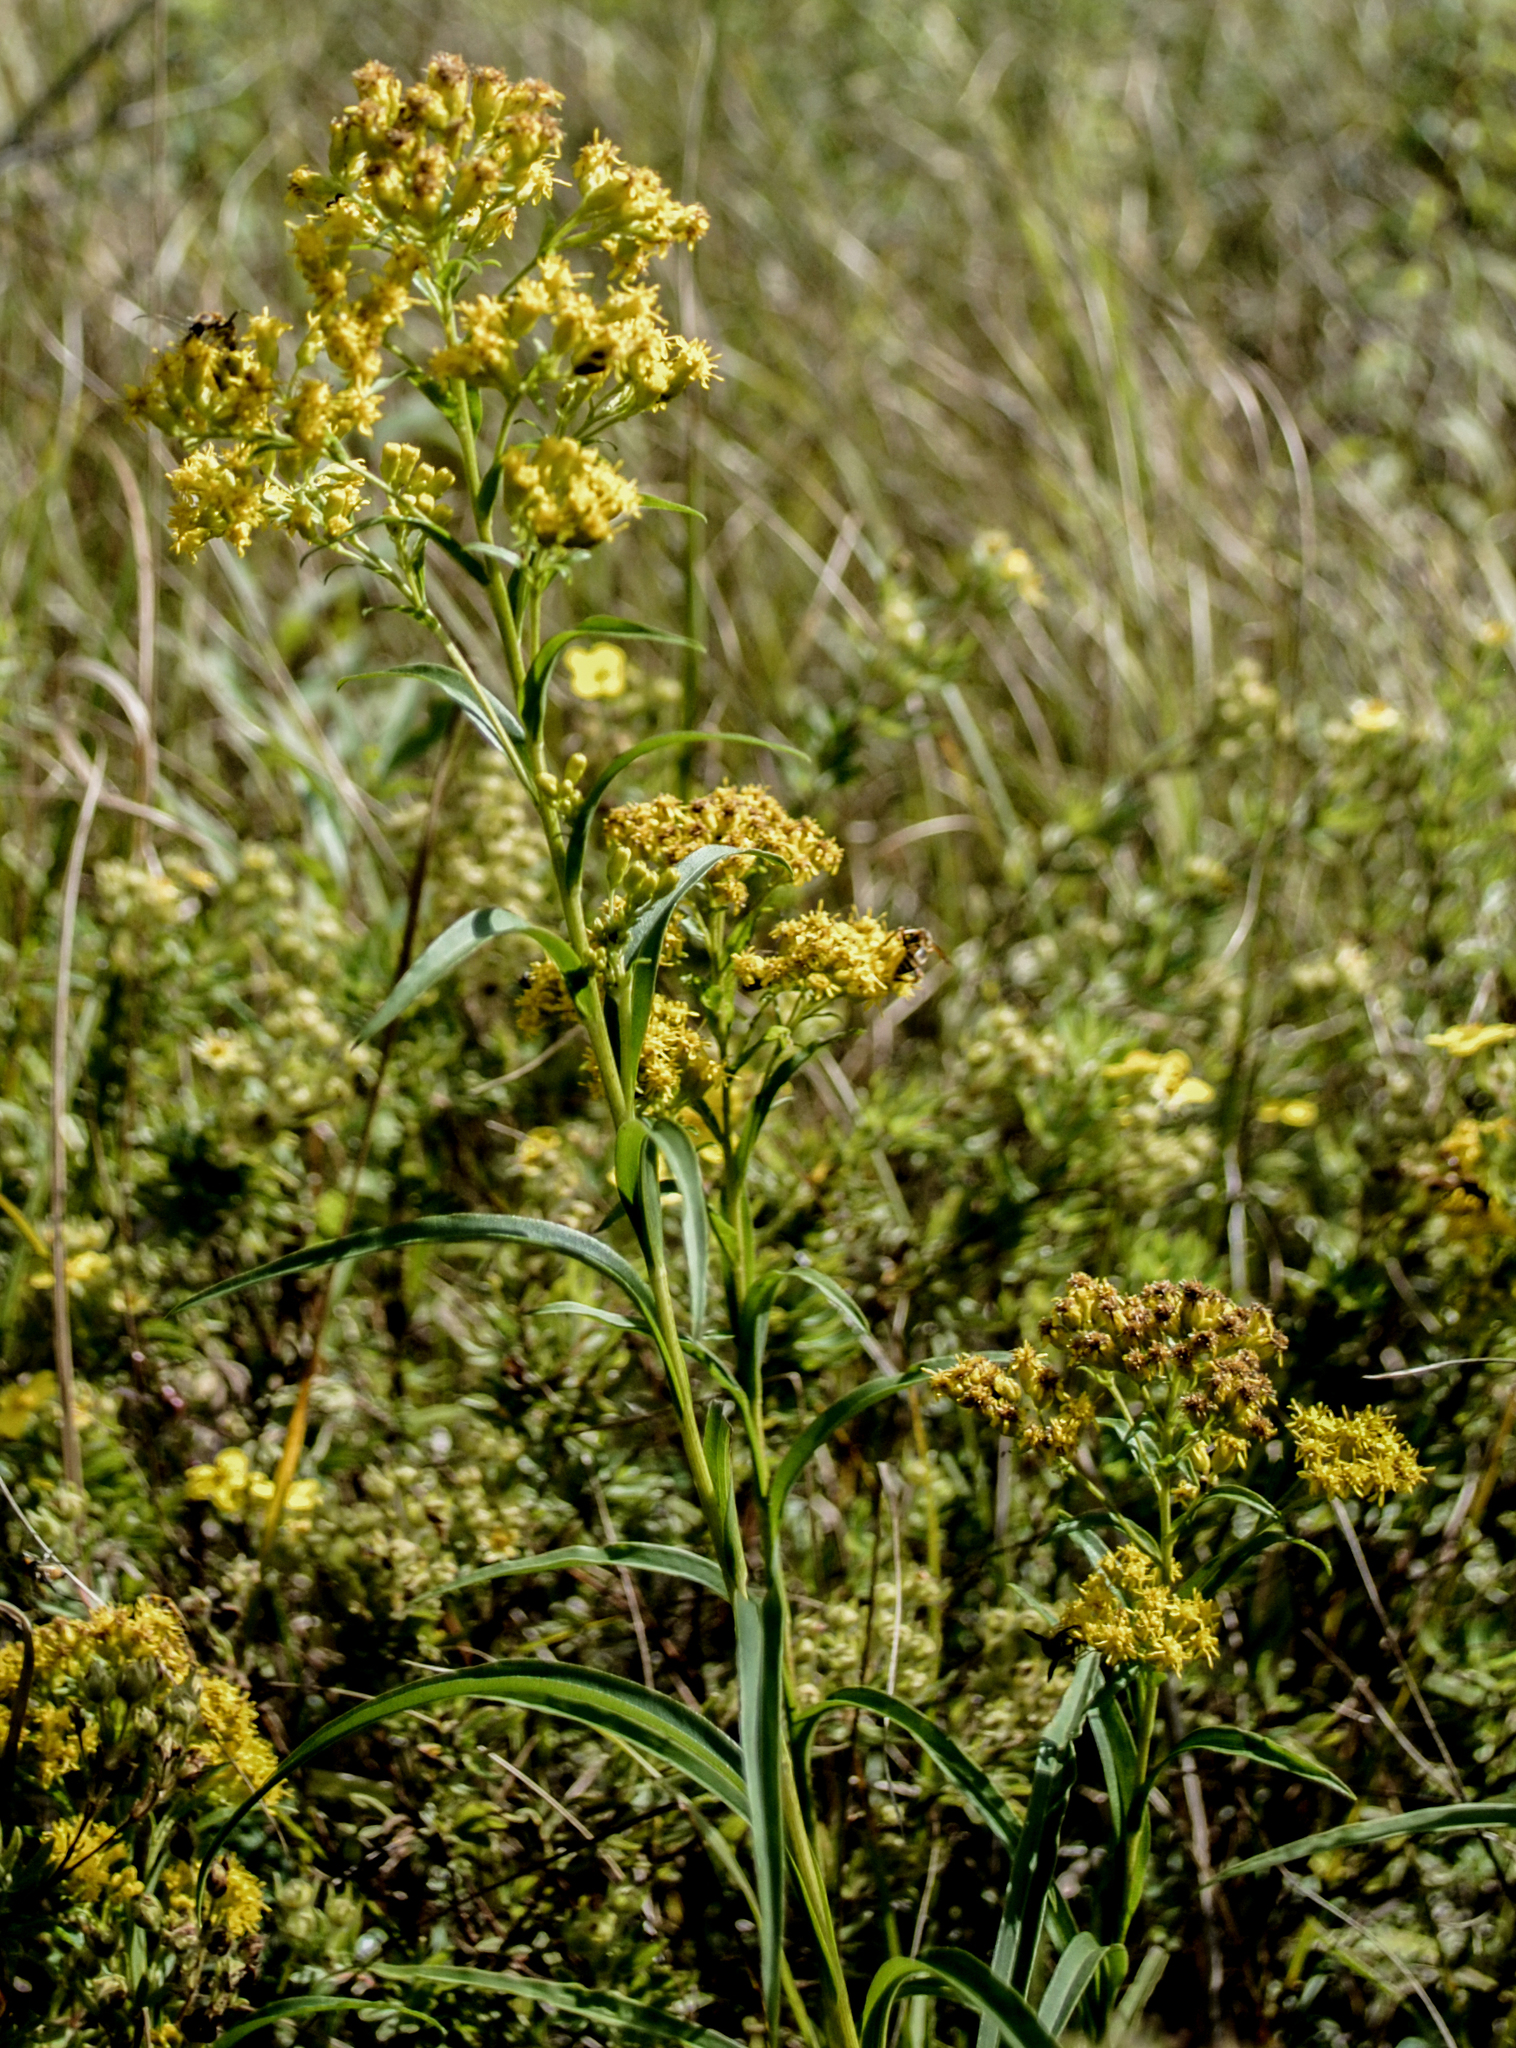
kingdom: Plantae
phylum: Tracheophyta
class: Magnoliopsida
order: Asterales
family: Asteraceae
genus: Solidago
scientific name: Solidago riddellii
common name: Riddell's goldenrod
